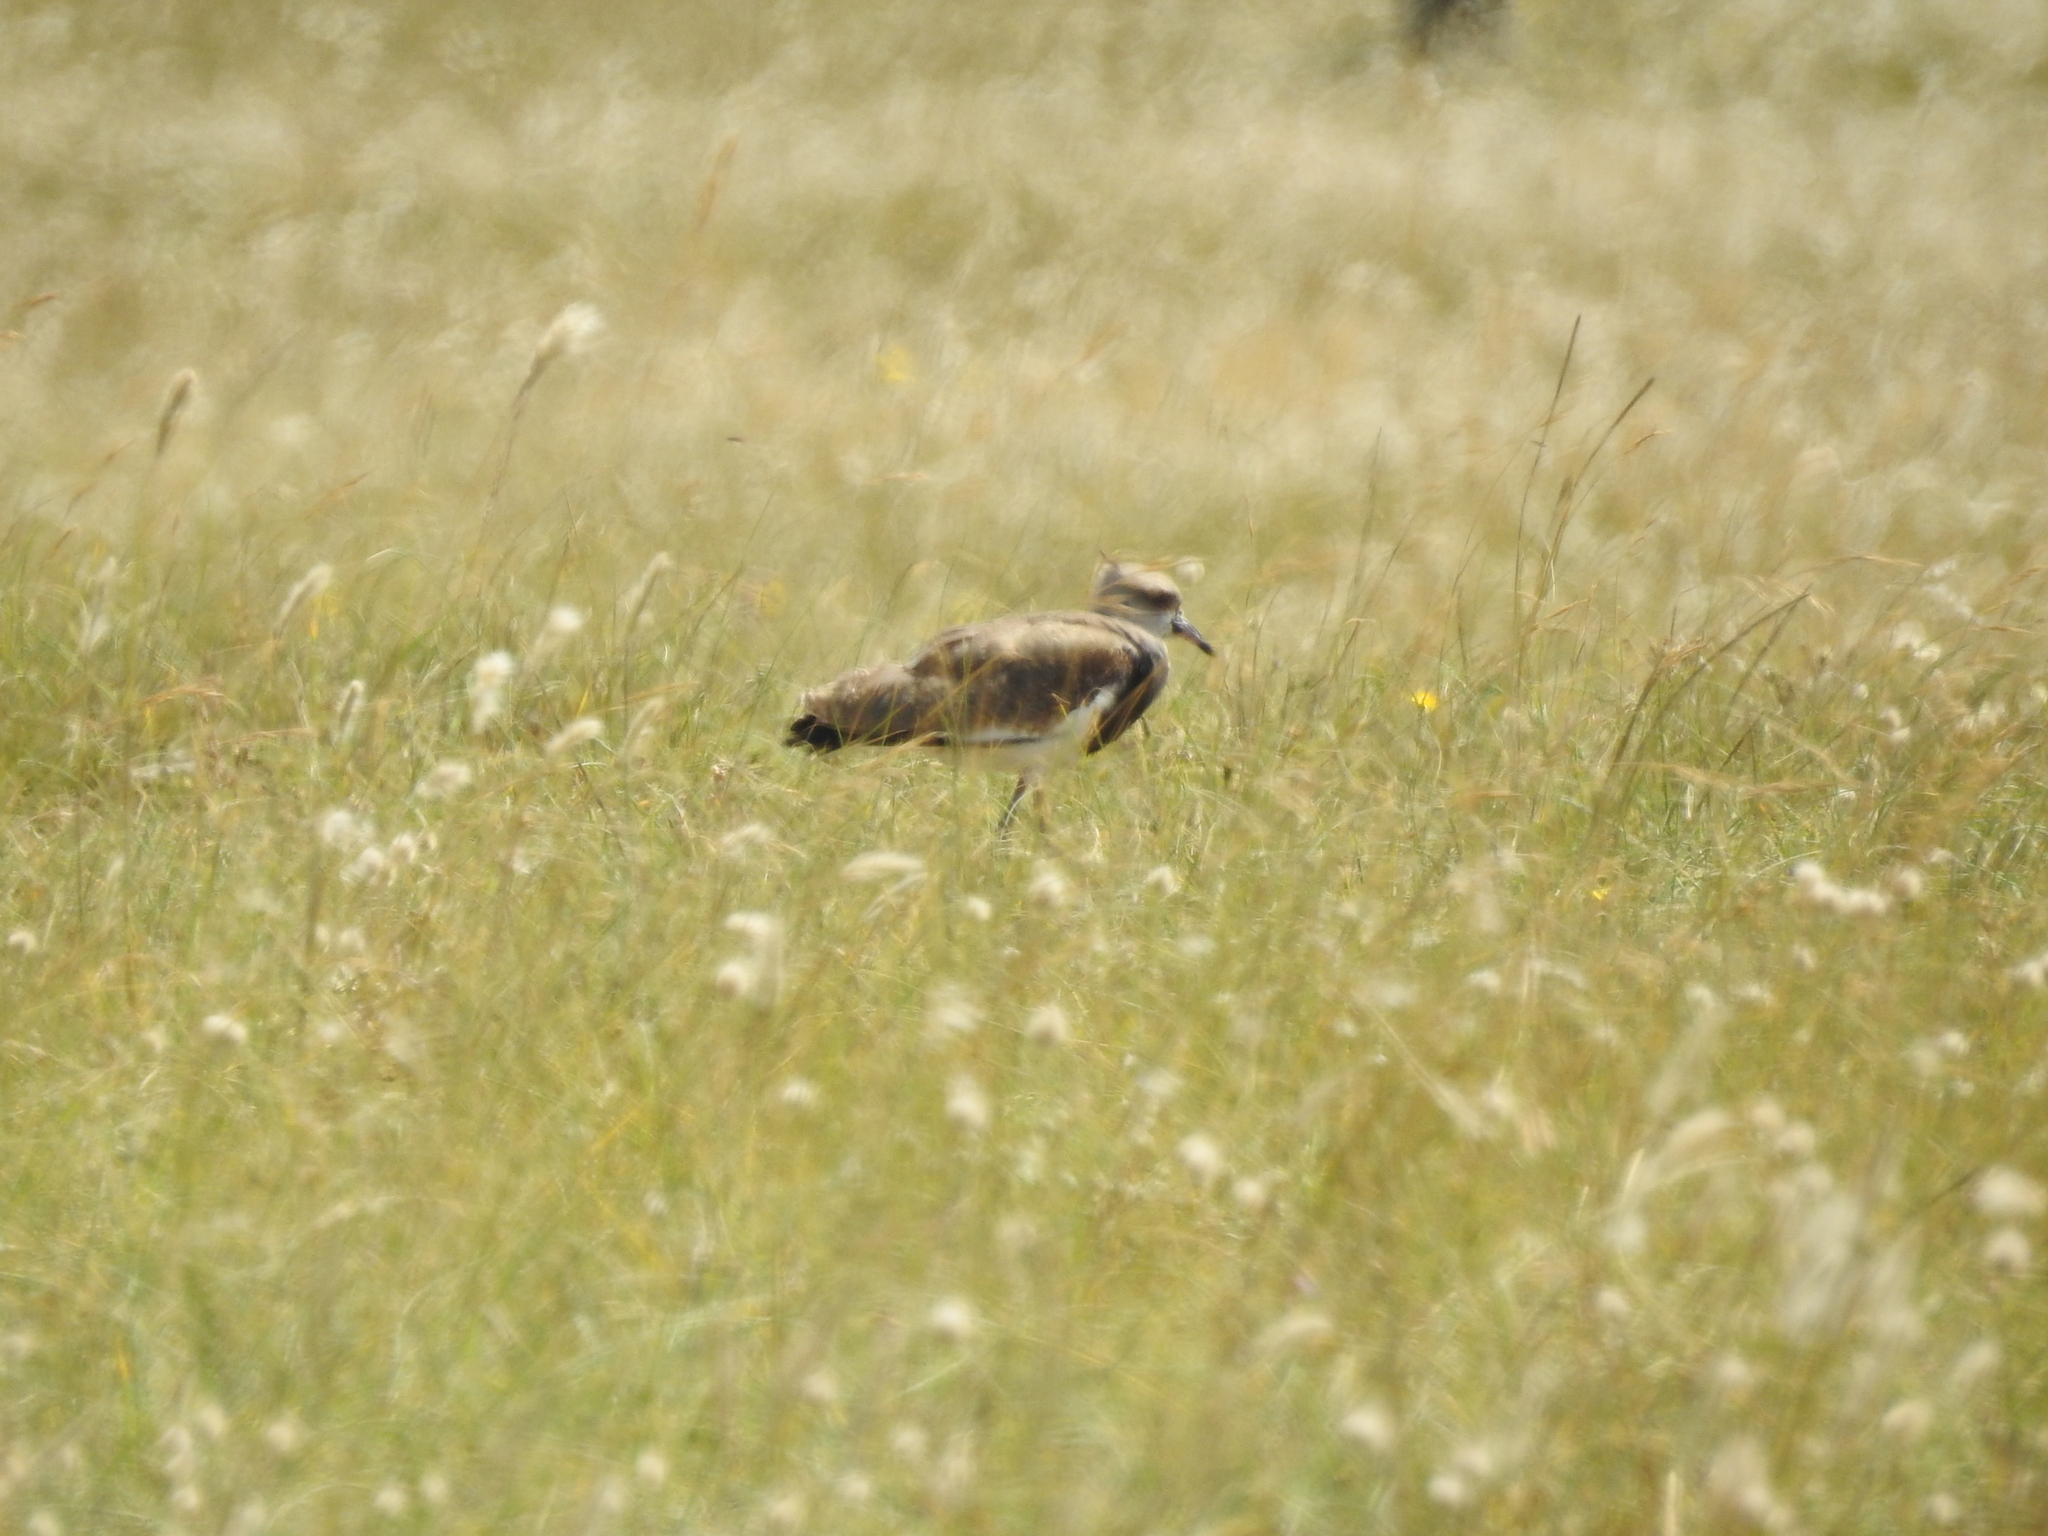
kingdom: Animalia
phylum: Chordata
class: Aves
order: Charadriiformes
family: Charadriidae
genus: Vanellus
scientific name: Vanellus chilensis
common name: Southern lapwing
